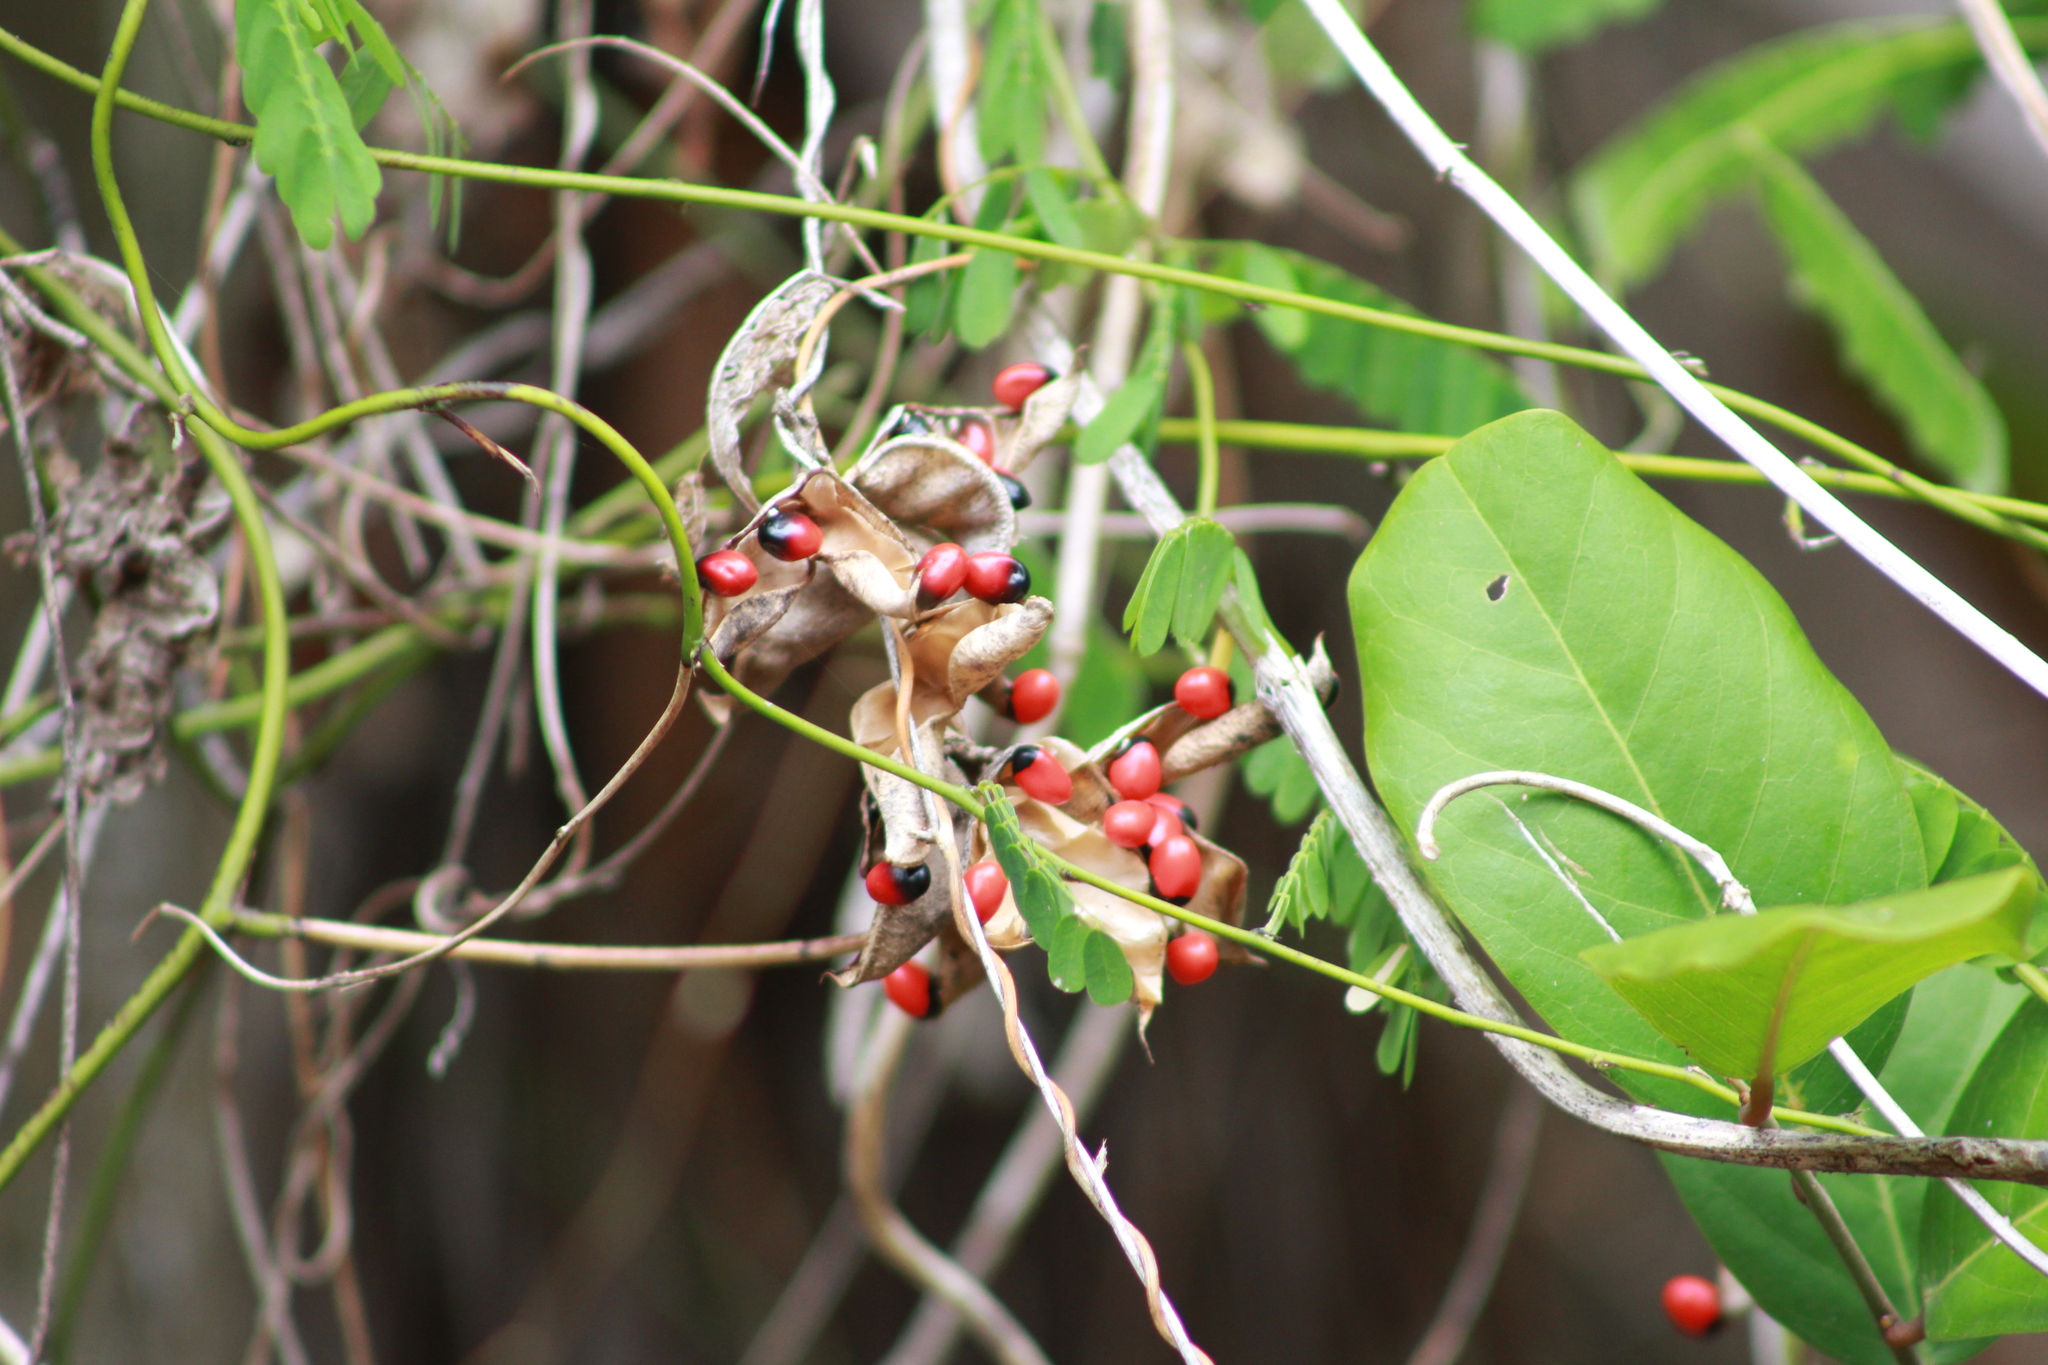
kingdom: Plantae
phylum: Tracheophyta
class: Magnoliopsida
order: Fabales
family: Fabaceae
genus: Abrus
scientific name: Abrus precatorius
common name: Rosarypea
